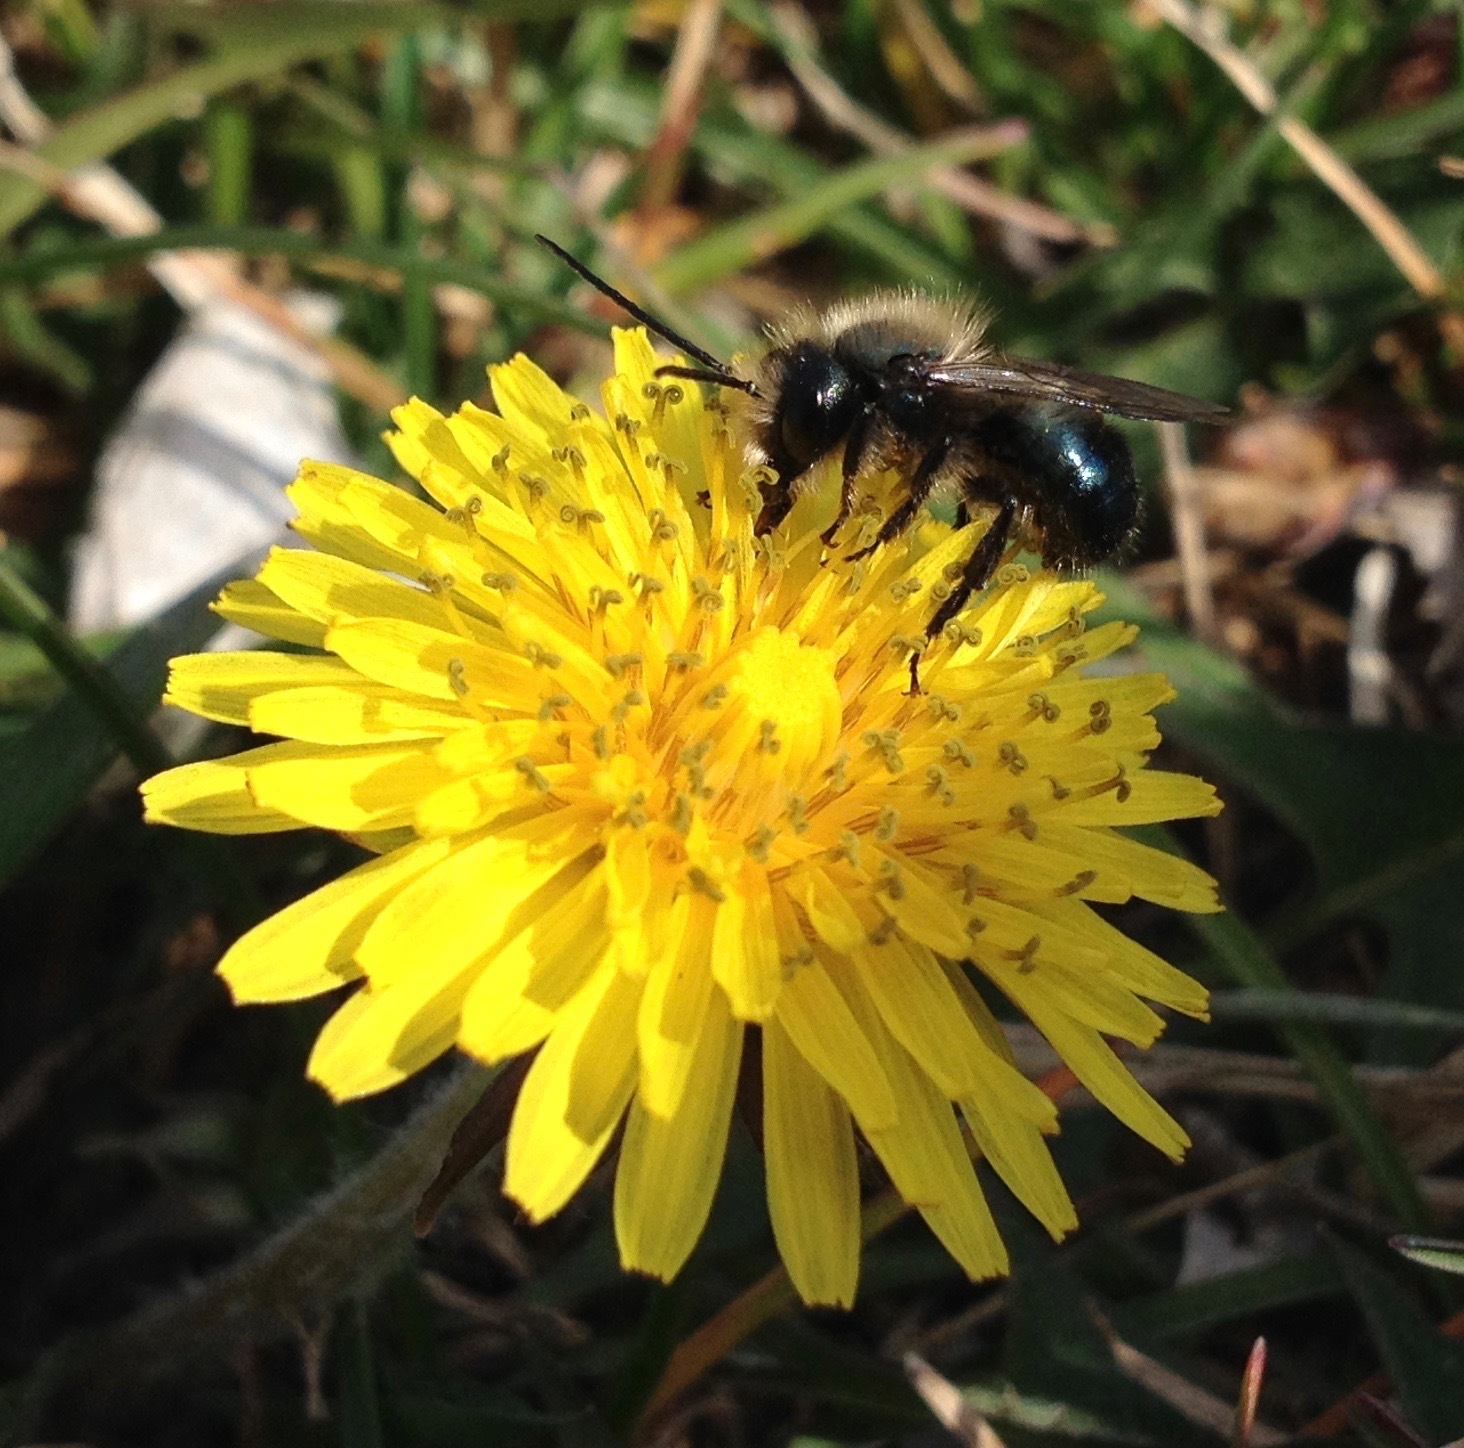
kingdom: Plantae
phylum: Tracheophyta
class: Magnoliopsida
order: Asterales
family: Asteraceae
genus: Taraxacum
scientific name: Taraxacum officinale
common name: Common dandelion
